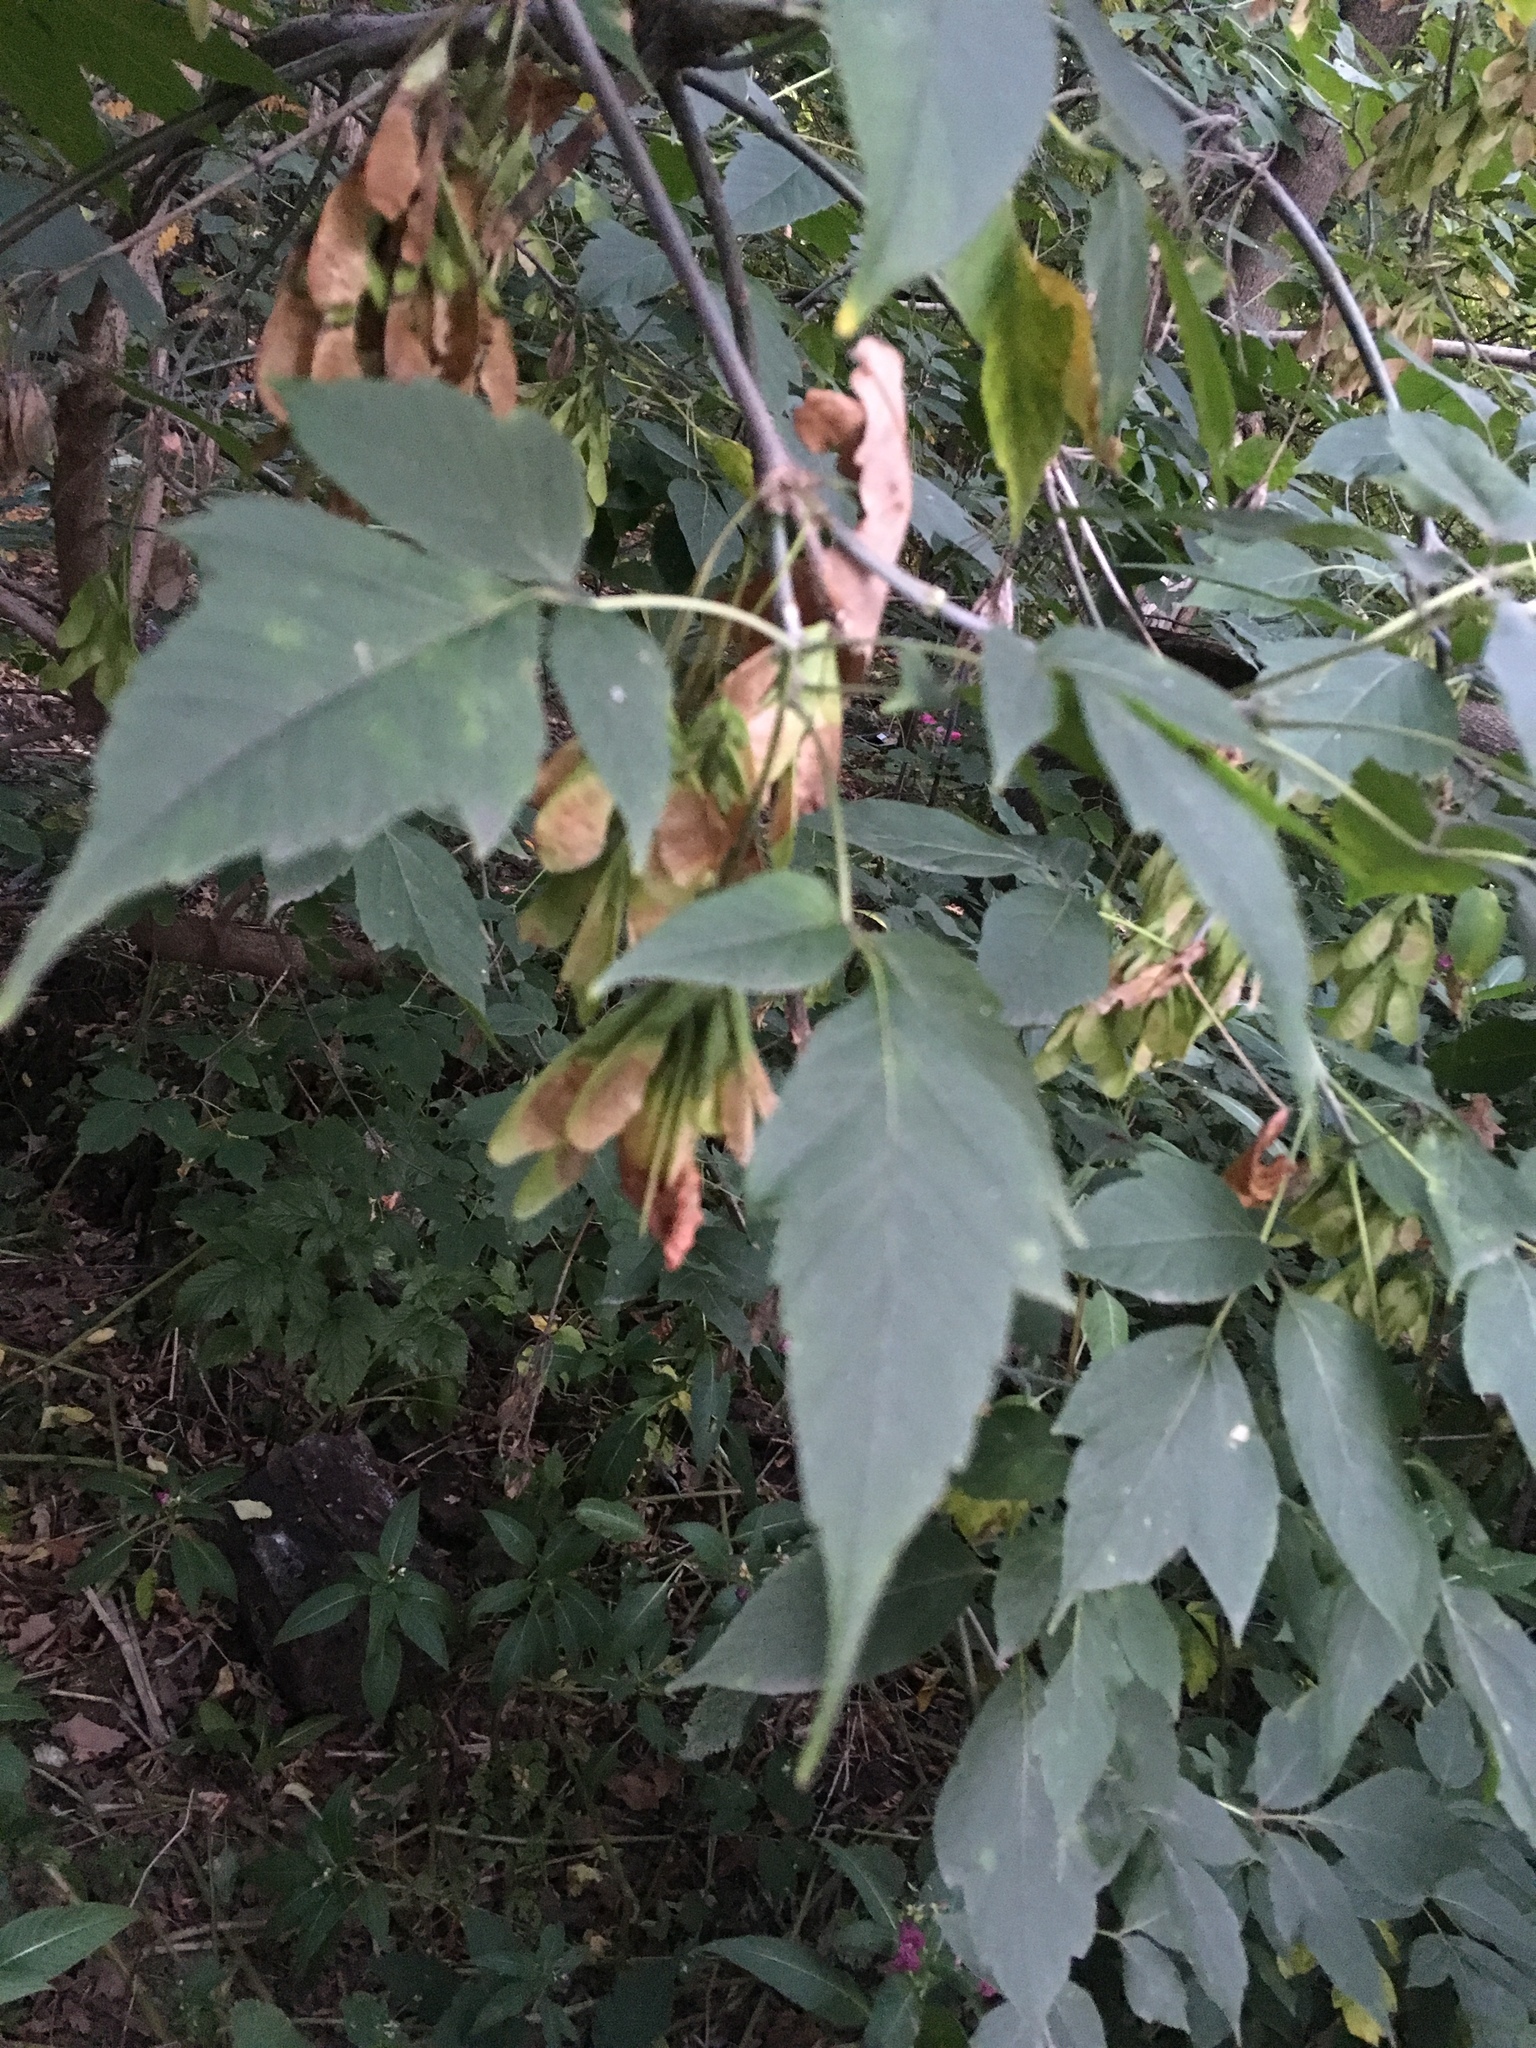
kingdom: Plantae
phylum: Tracheophyta
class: Magnoliopsida
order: Sapindales
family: Sapindaceae
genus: Acer
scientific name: Acer negundo
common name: Ashleaf maple
